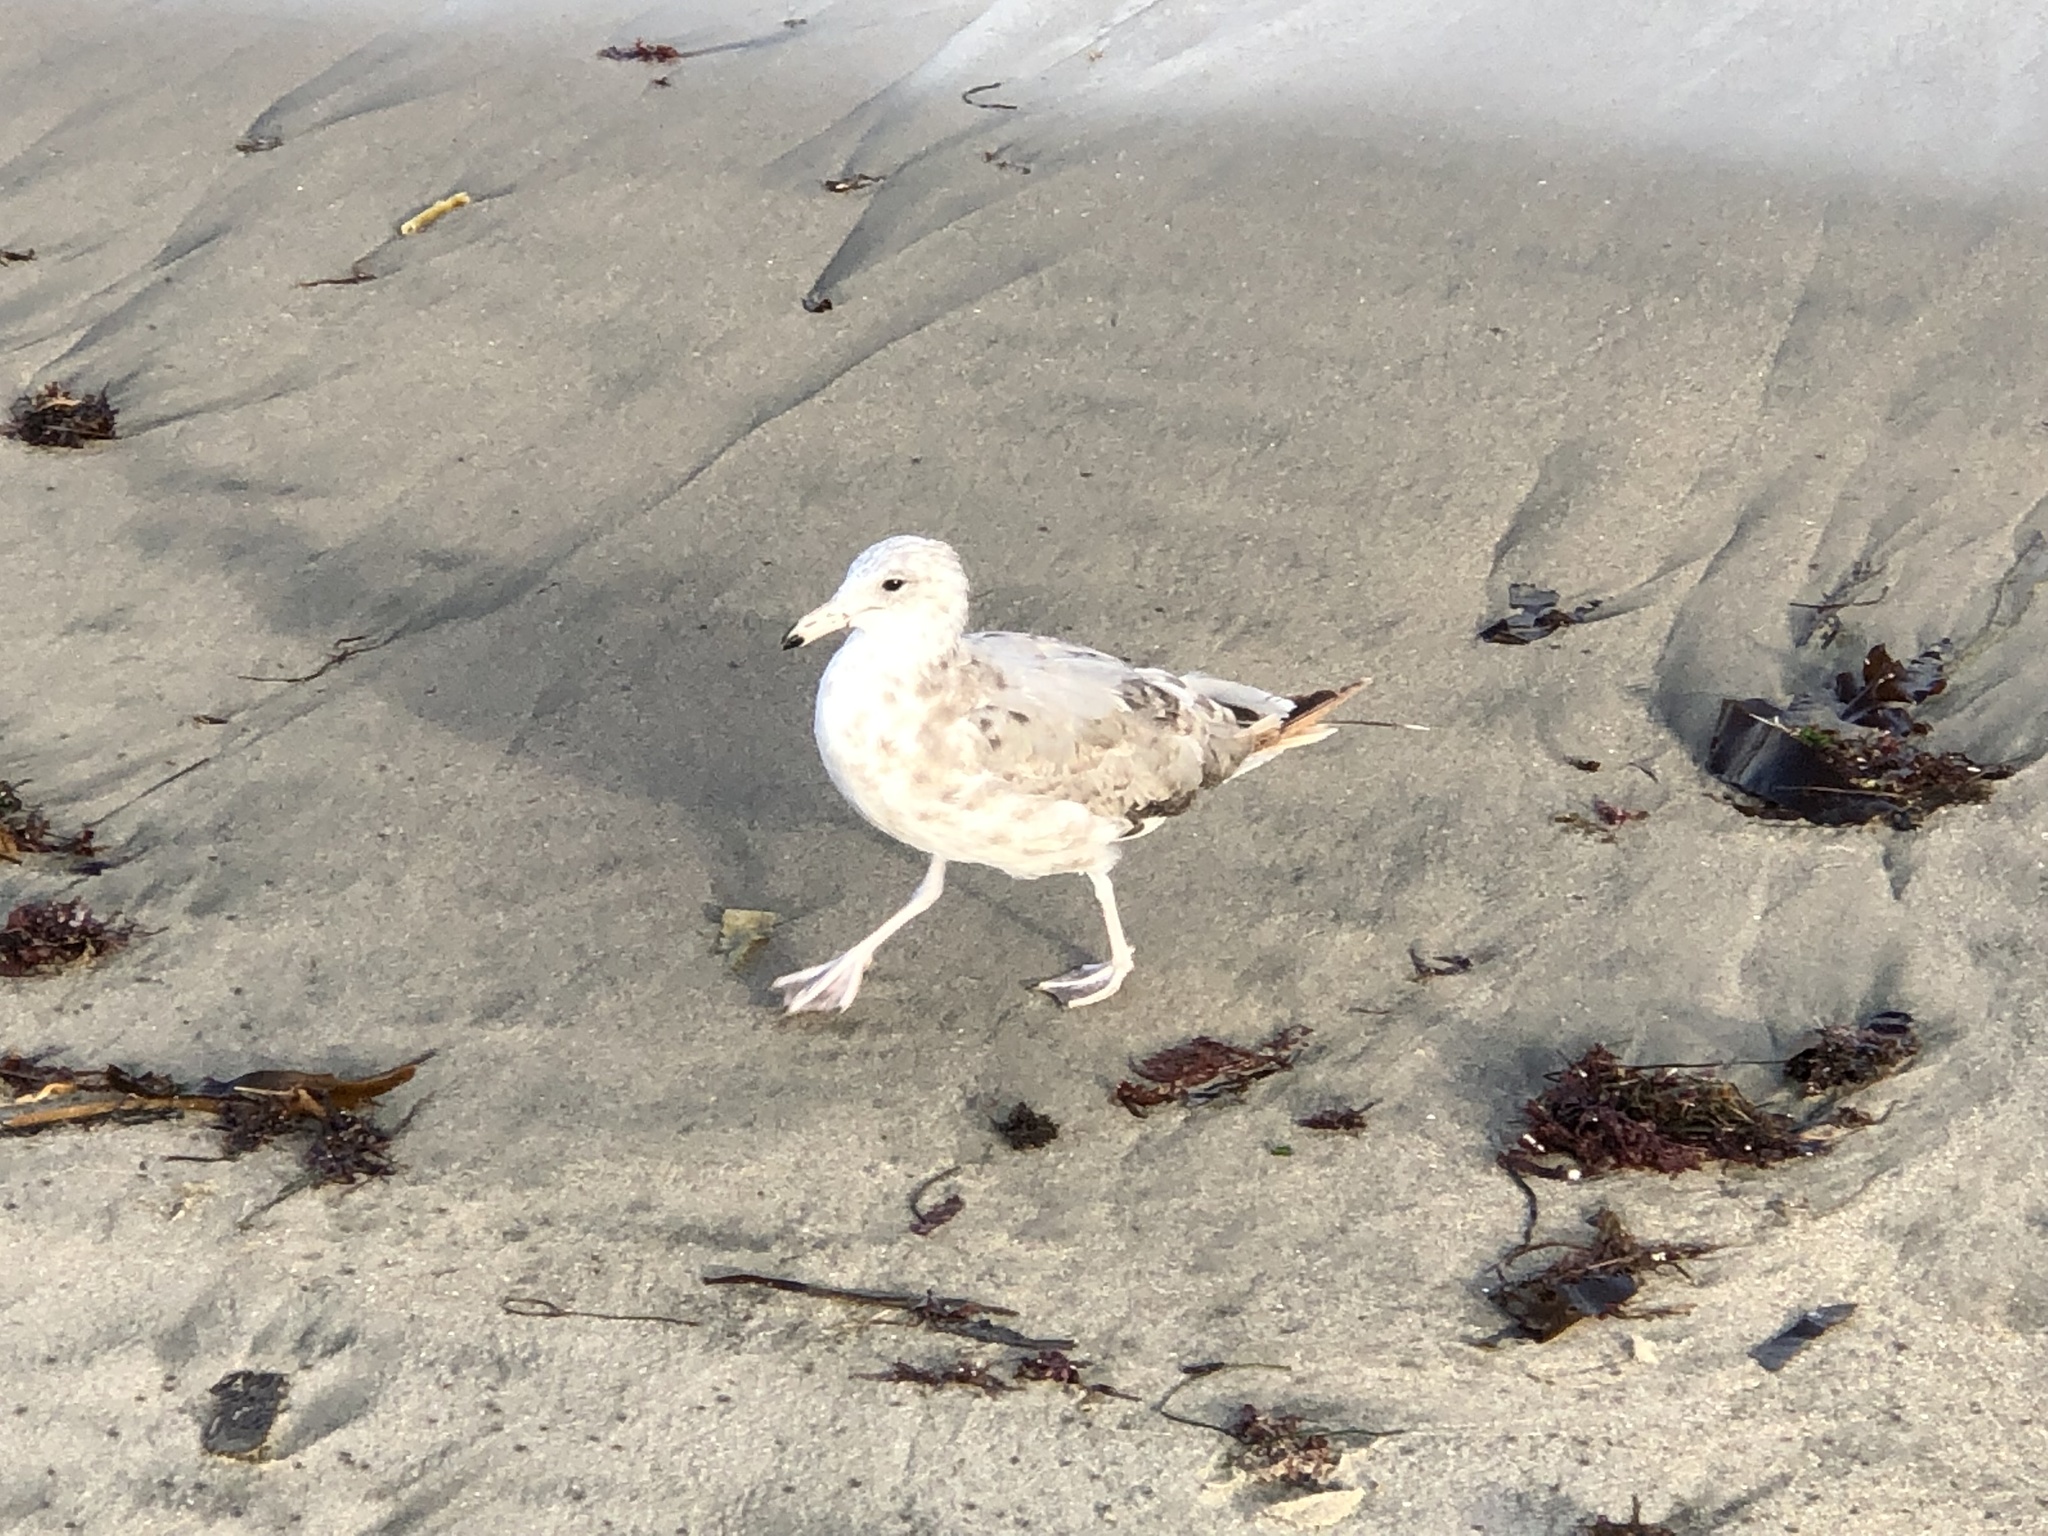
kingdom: Animalia
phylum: Chordata
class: Aves
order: Charadriiformes
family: Laridae
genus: Larus
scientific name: Larus californicus
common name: California gull
